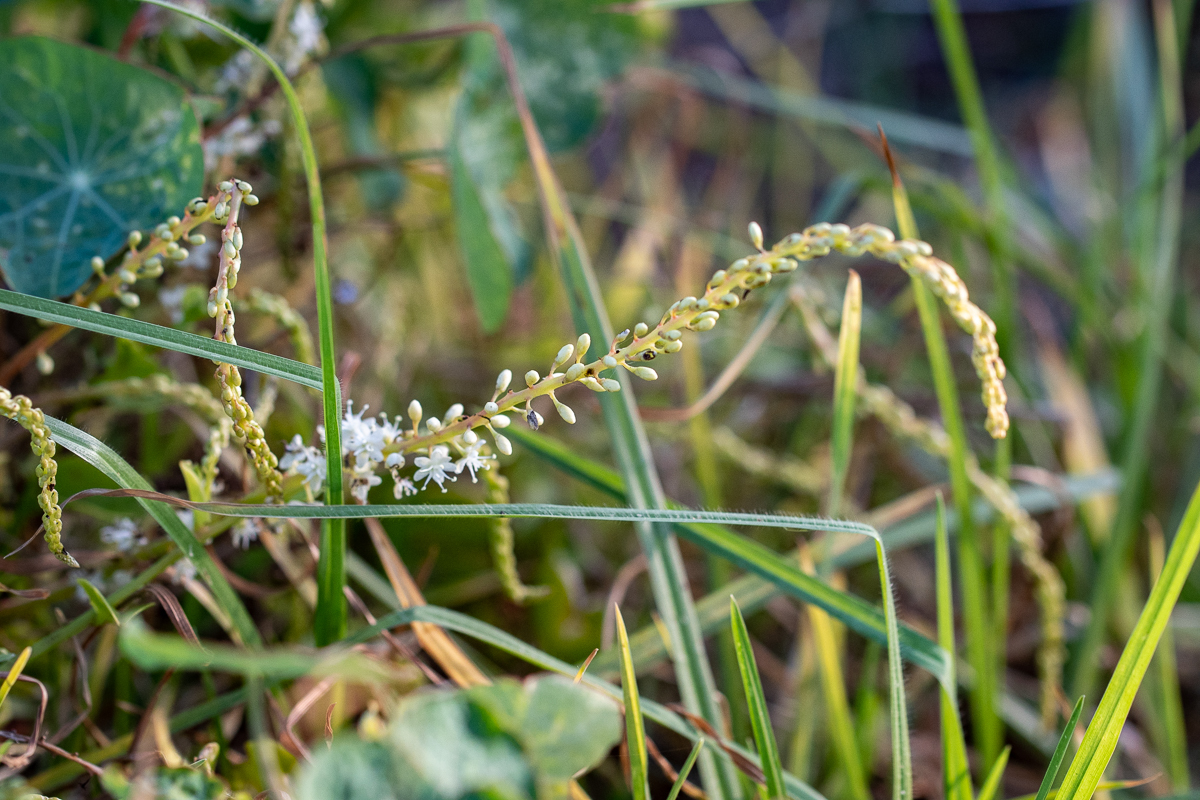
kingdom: Plantae
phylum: Tracheophyta
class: Magnoliopsida
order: Caryophyllales
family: Basellaceae
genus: Anredera
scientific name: Anredera cordifolia
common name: Heartleaf madeiravine
